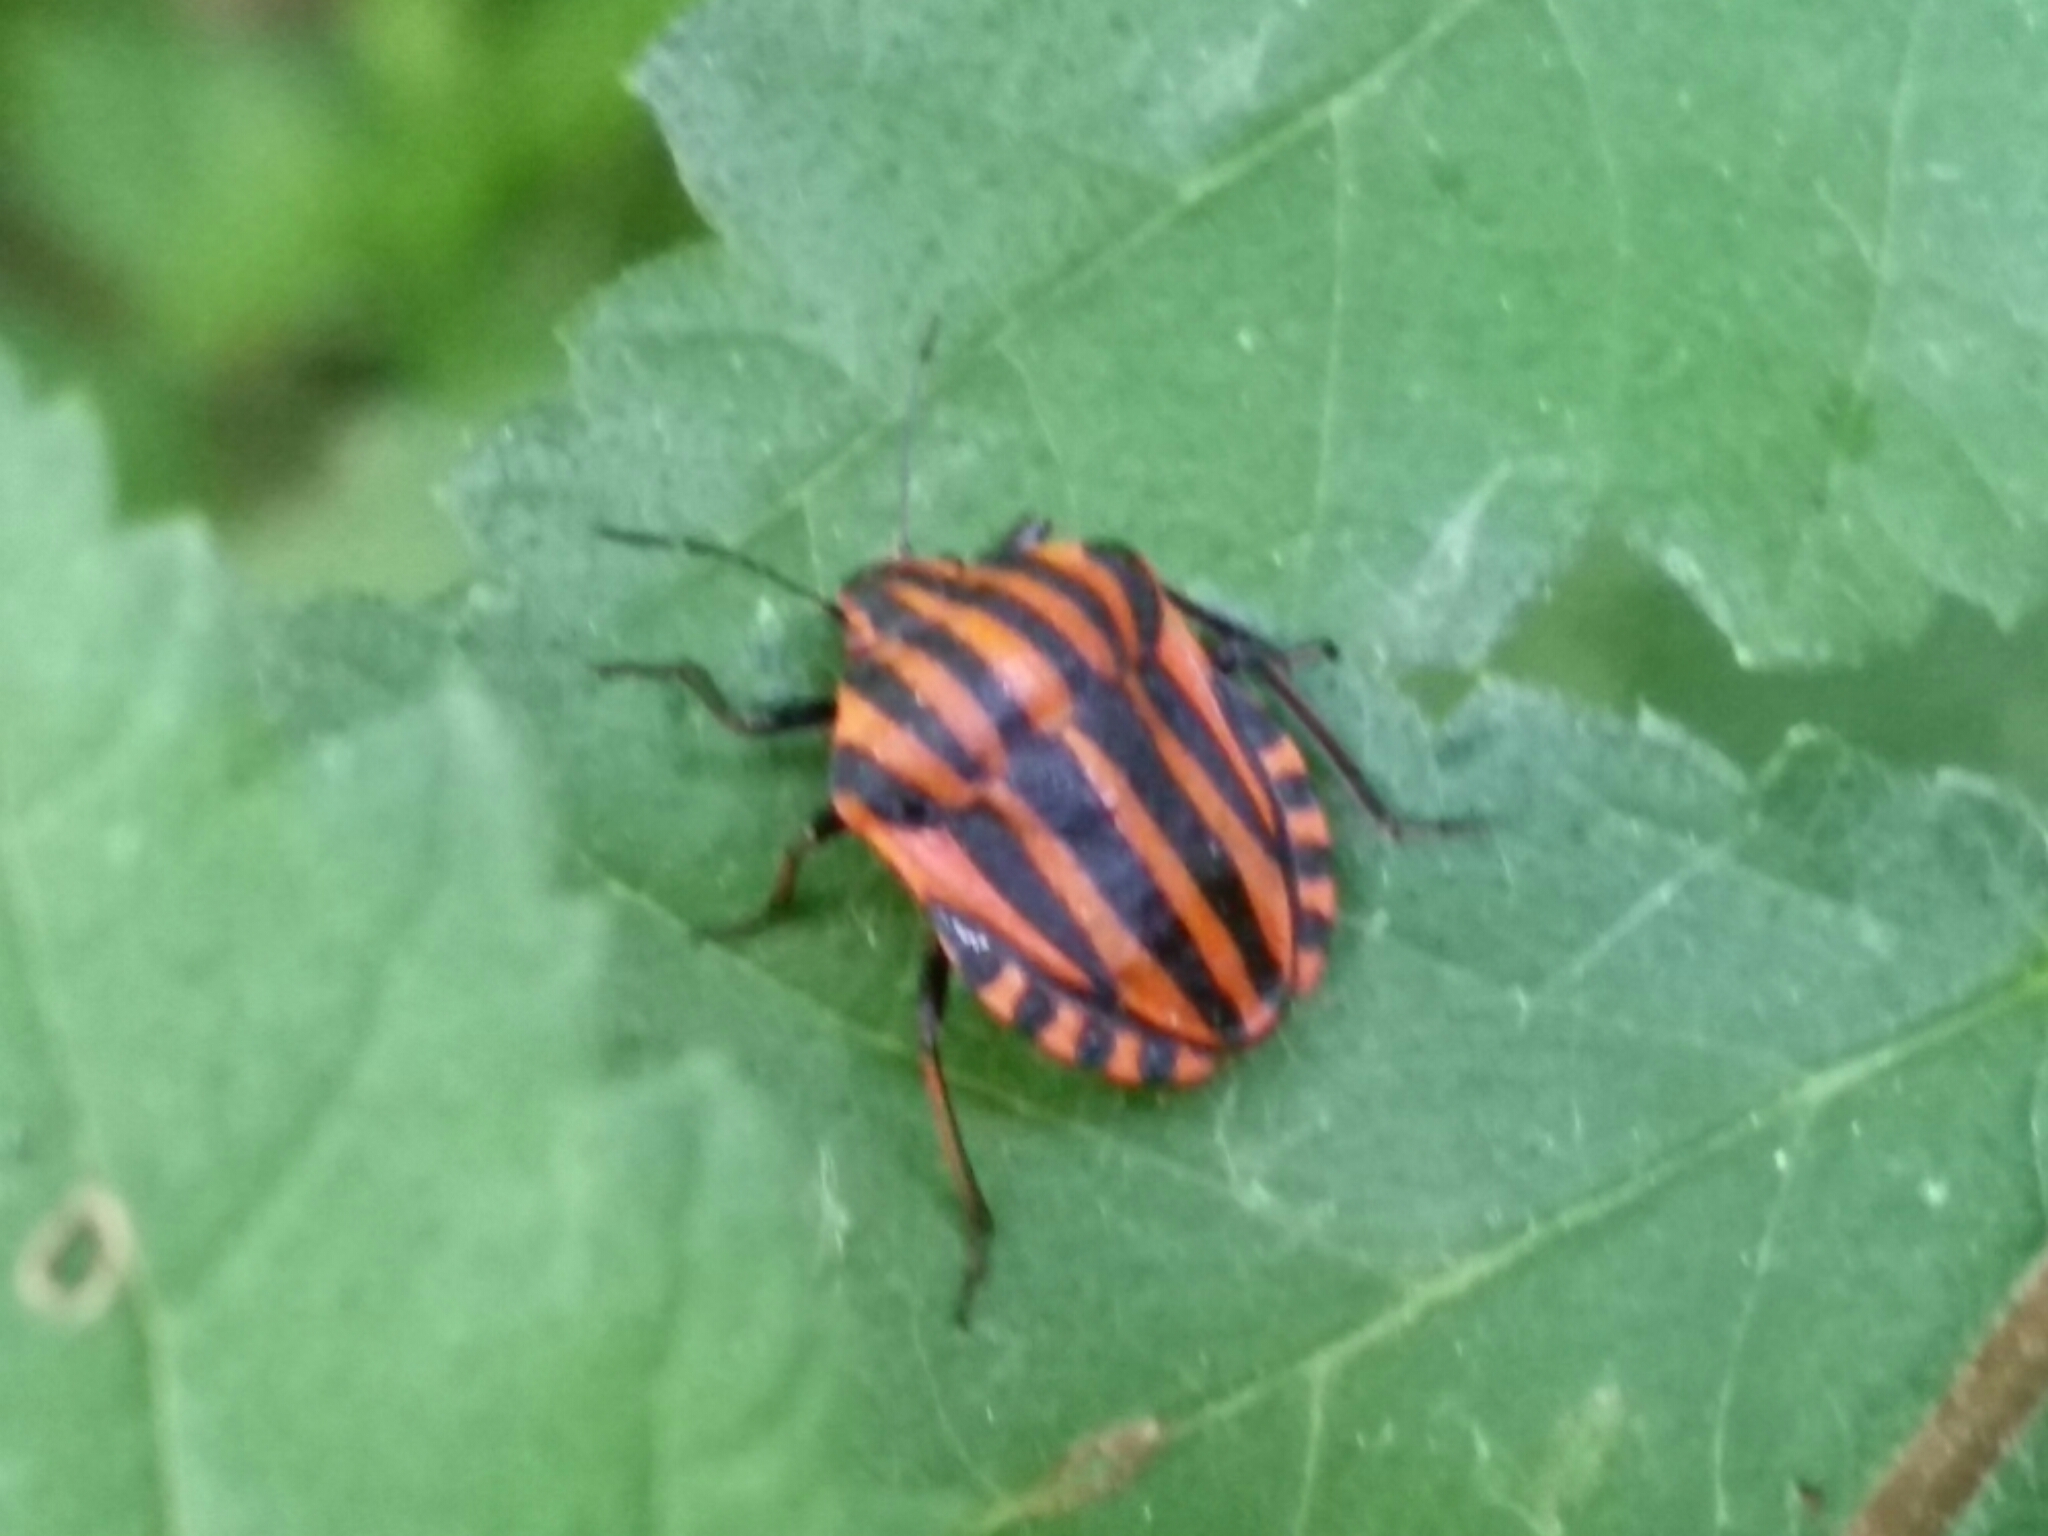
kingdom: Animalia
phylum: Arthropoda
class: Insecta
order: Hemiptera
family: Pentatomidae
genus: Graphosoma
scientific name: Graphosoma italicum
